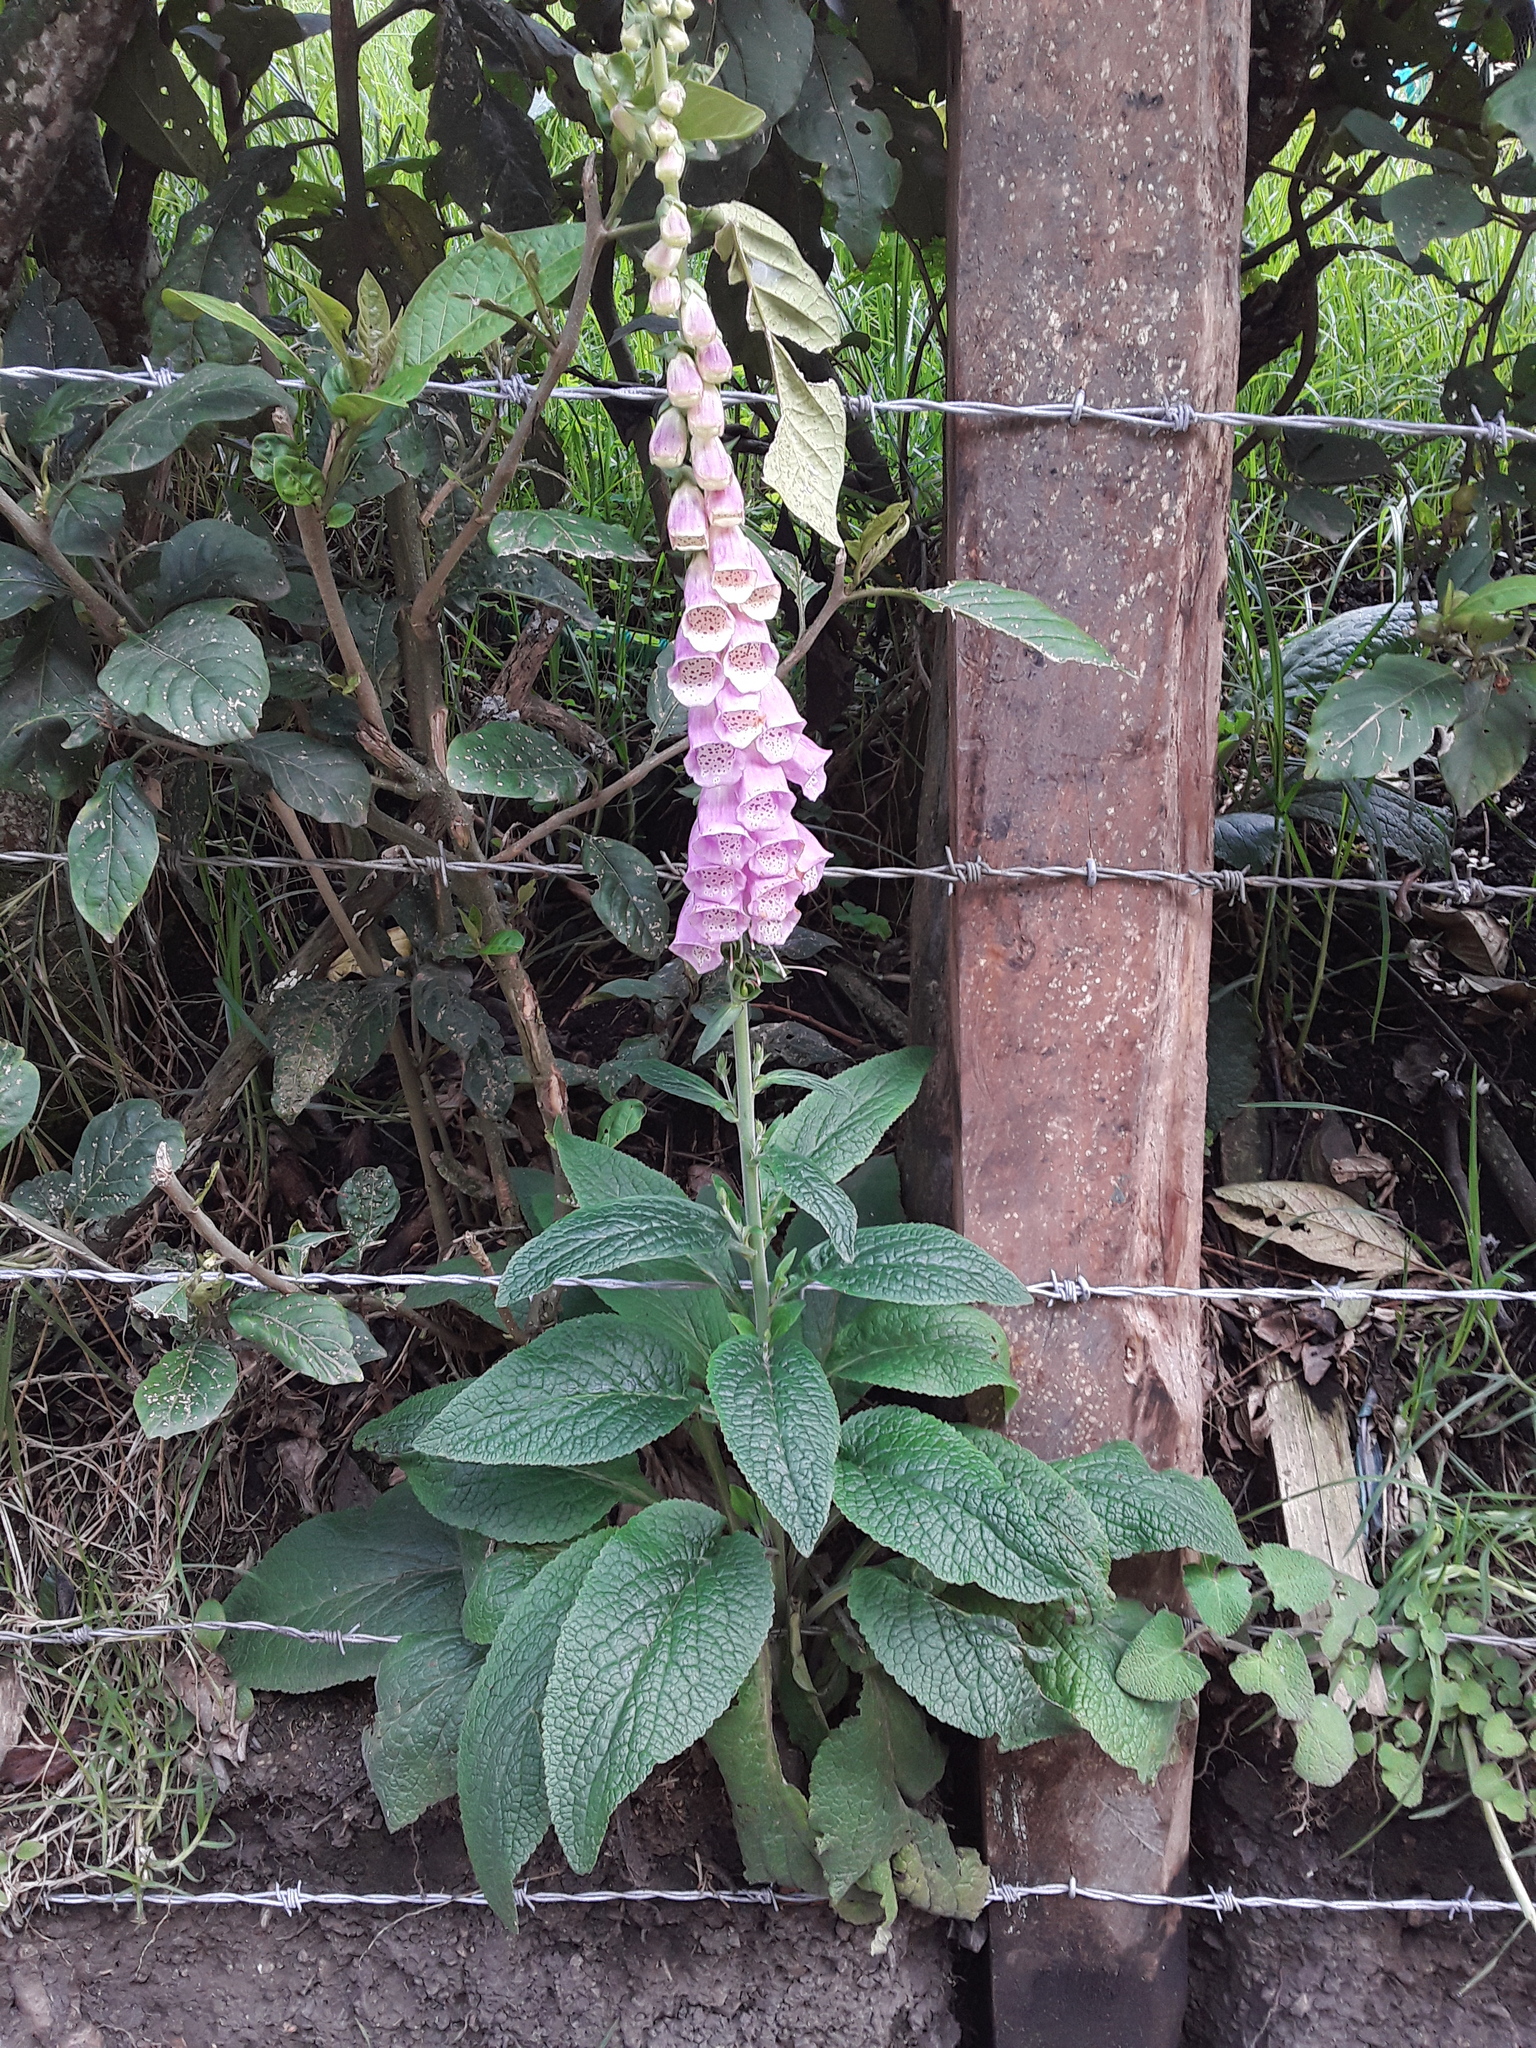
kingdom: Plantae
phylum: Tracheophyta
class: Magnoliopsida
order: Lamiales
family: Plantaginaceae
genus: Digitalis
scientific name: Digitalis purpurea
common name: Foxglove
